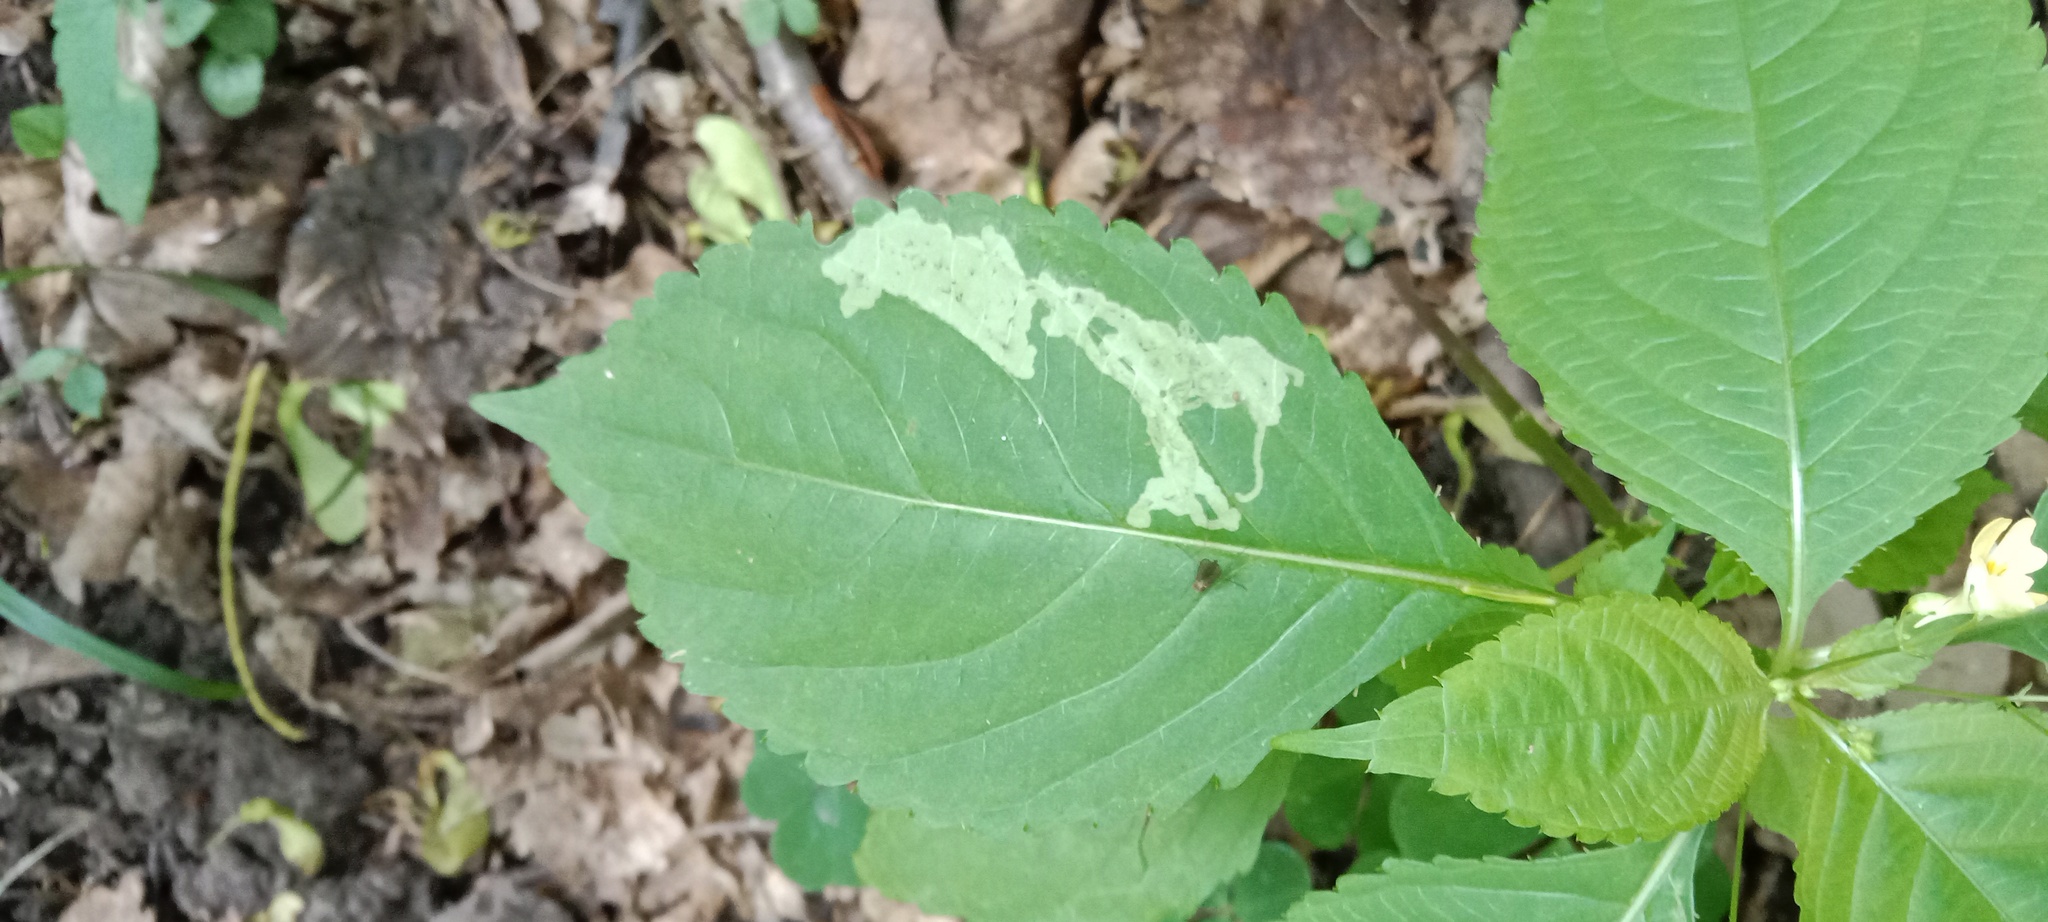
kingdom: Animalia
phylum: Arthropoda
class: Insecta
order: Diptera
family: Agromyzidae
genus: Phytoliriomyza
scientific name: Phytoliriomyza melampyga
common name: Jewelweed leaf-miner fly
